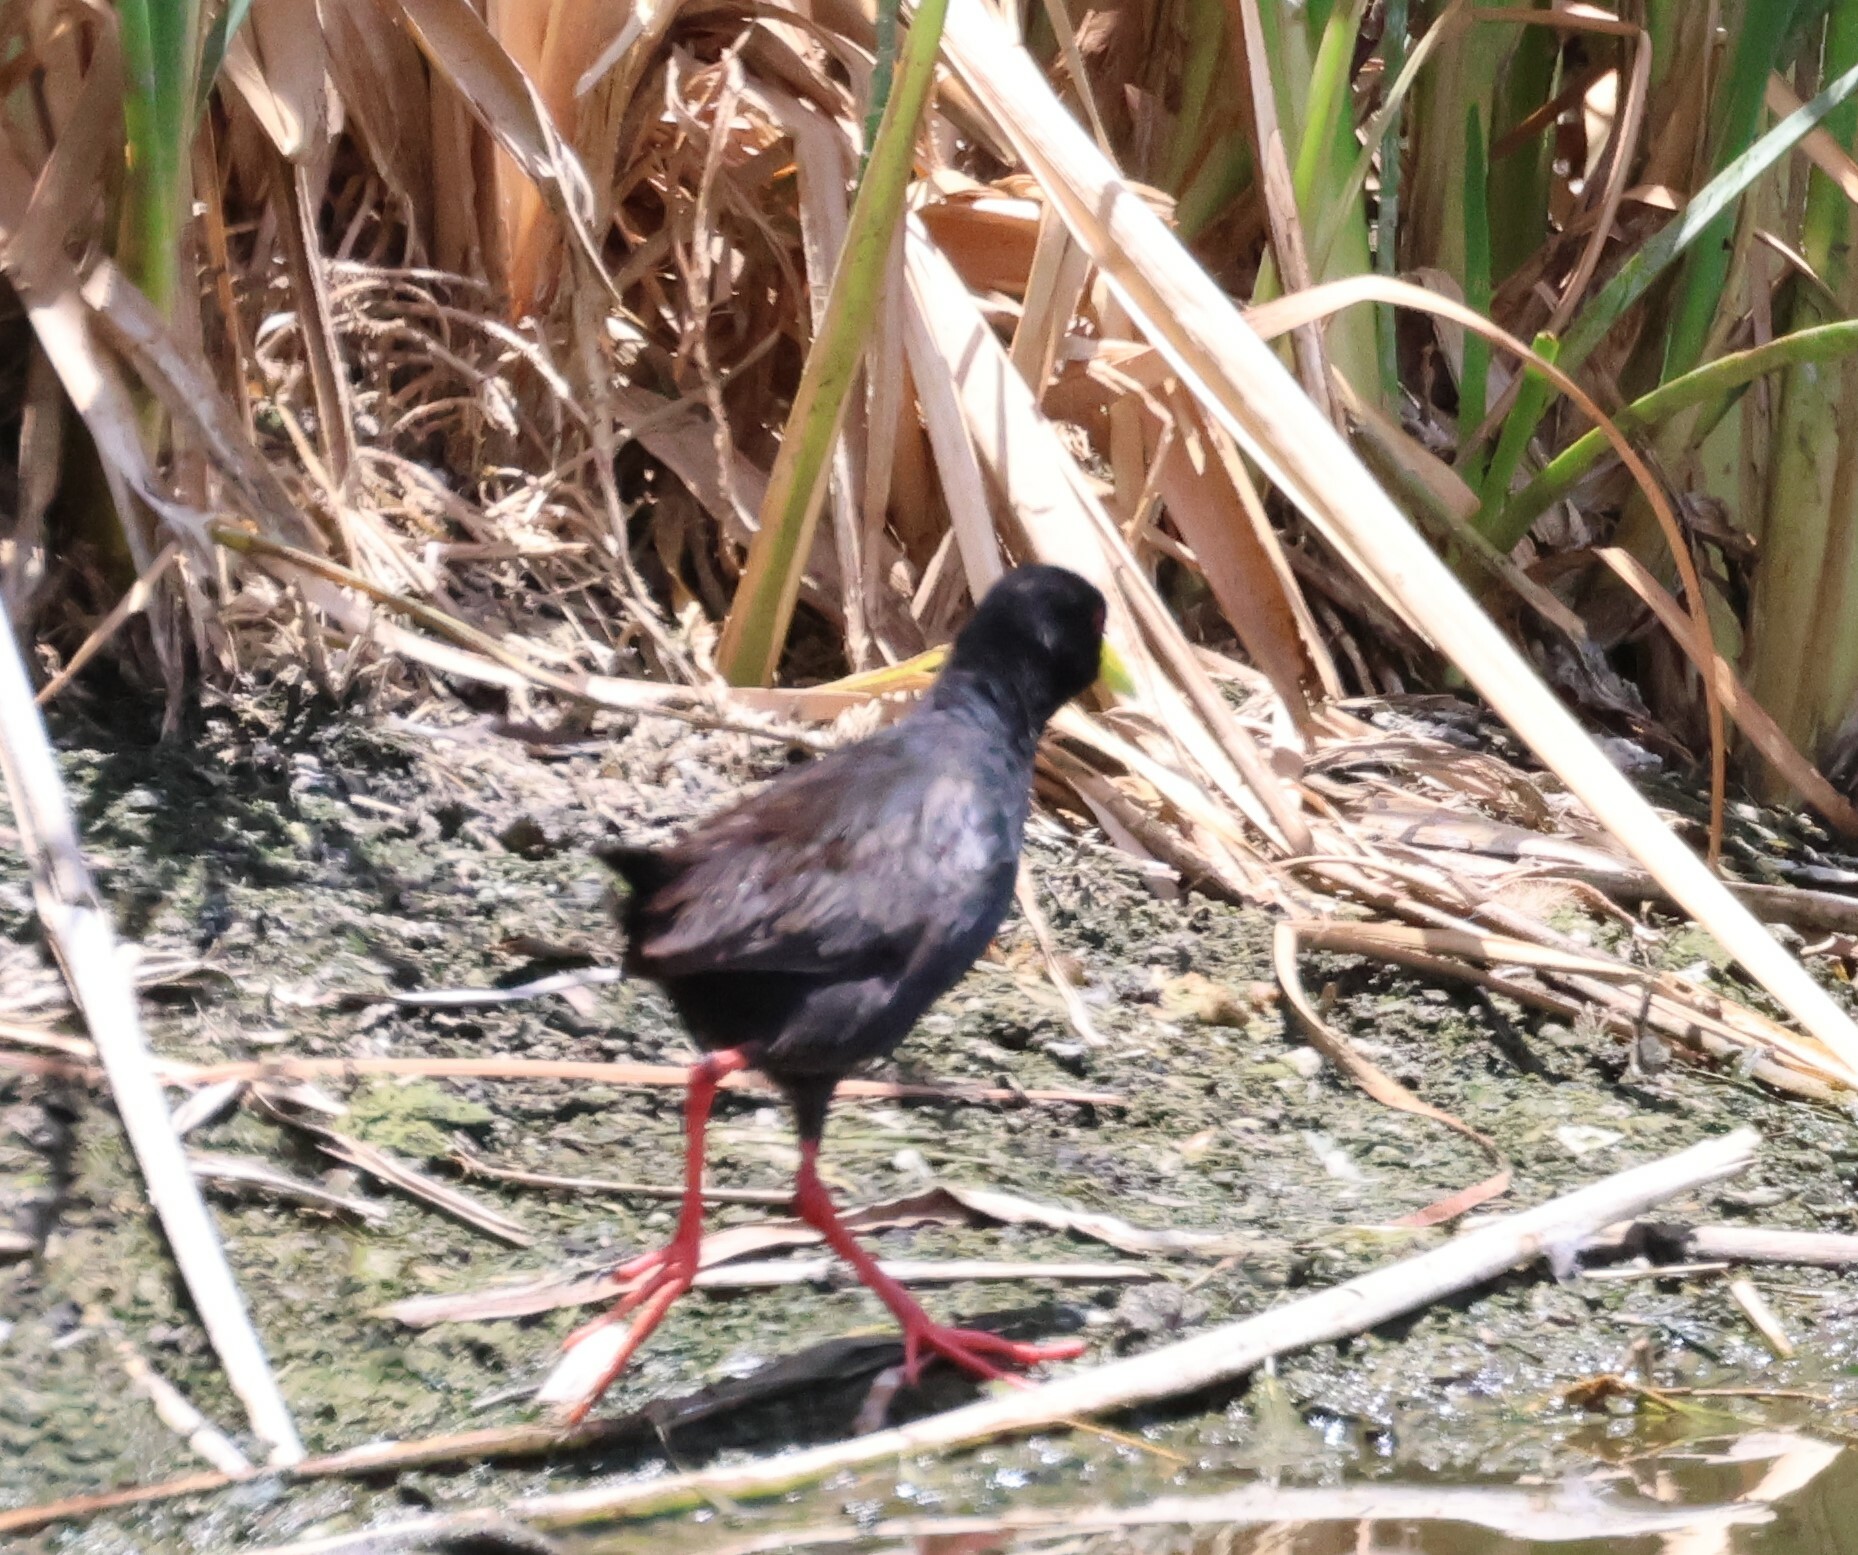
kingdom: Animalia
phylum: Chordata
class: Aves
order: Gruiformes
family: Rallidae
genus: Amaurornis
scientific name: Amaurornis flavirostra
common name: Black crake
